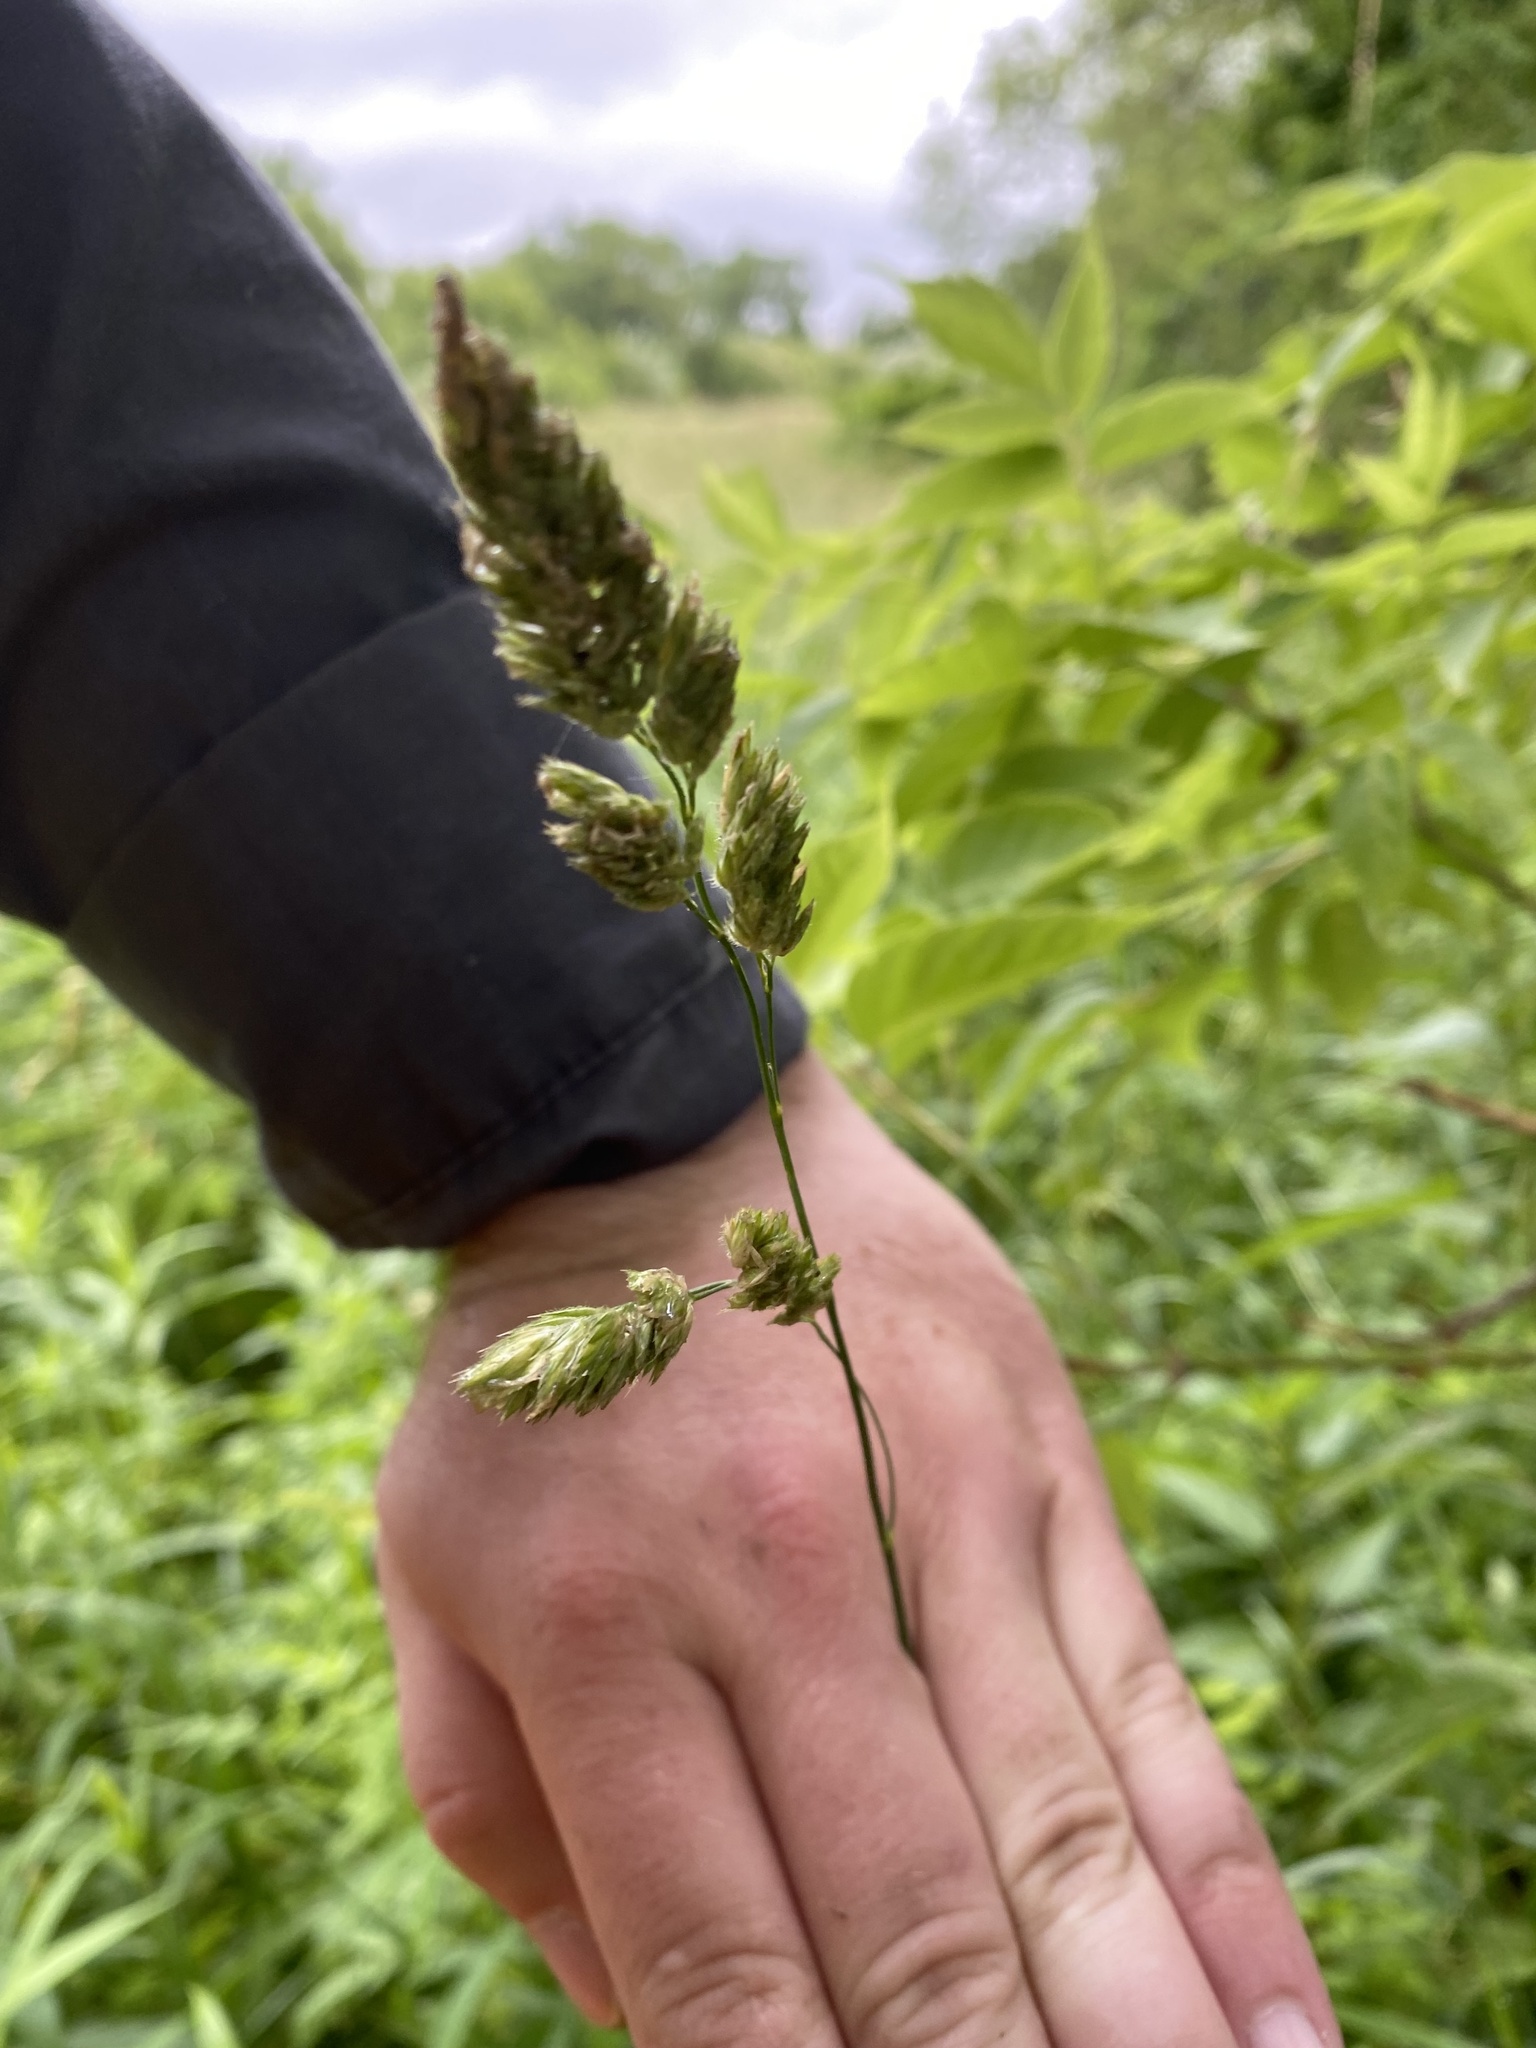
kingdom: Plantae
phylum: Tracheophyta
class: Liliopsida
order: Poales
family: Poaceae
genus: Dactylis
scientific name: Dactylis glomerata
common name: Orchardgrass
